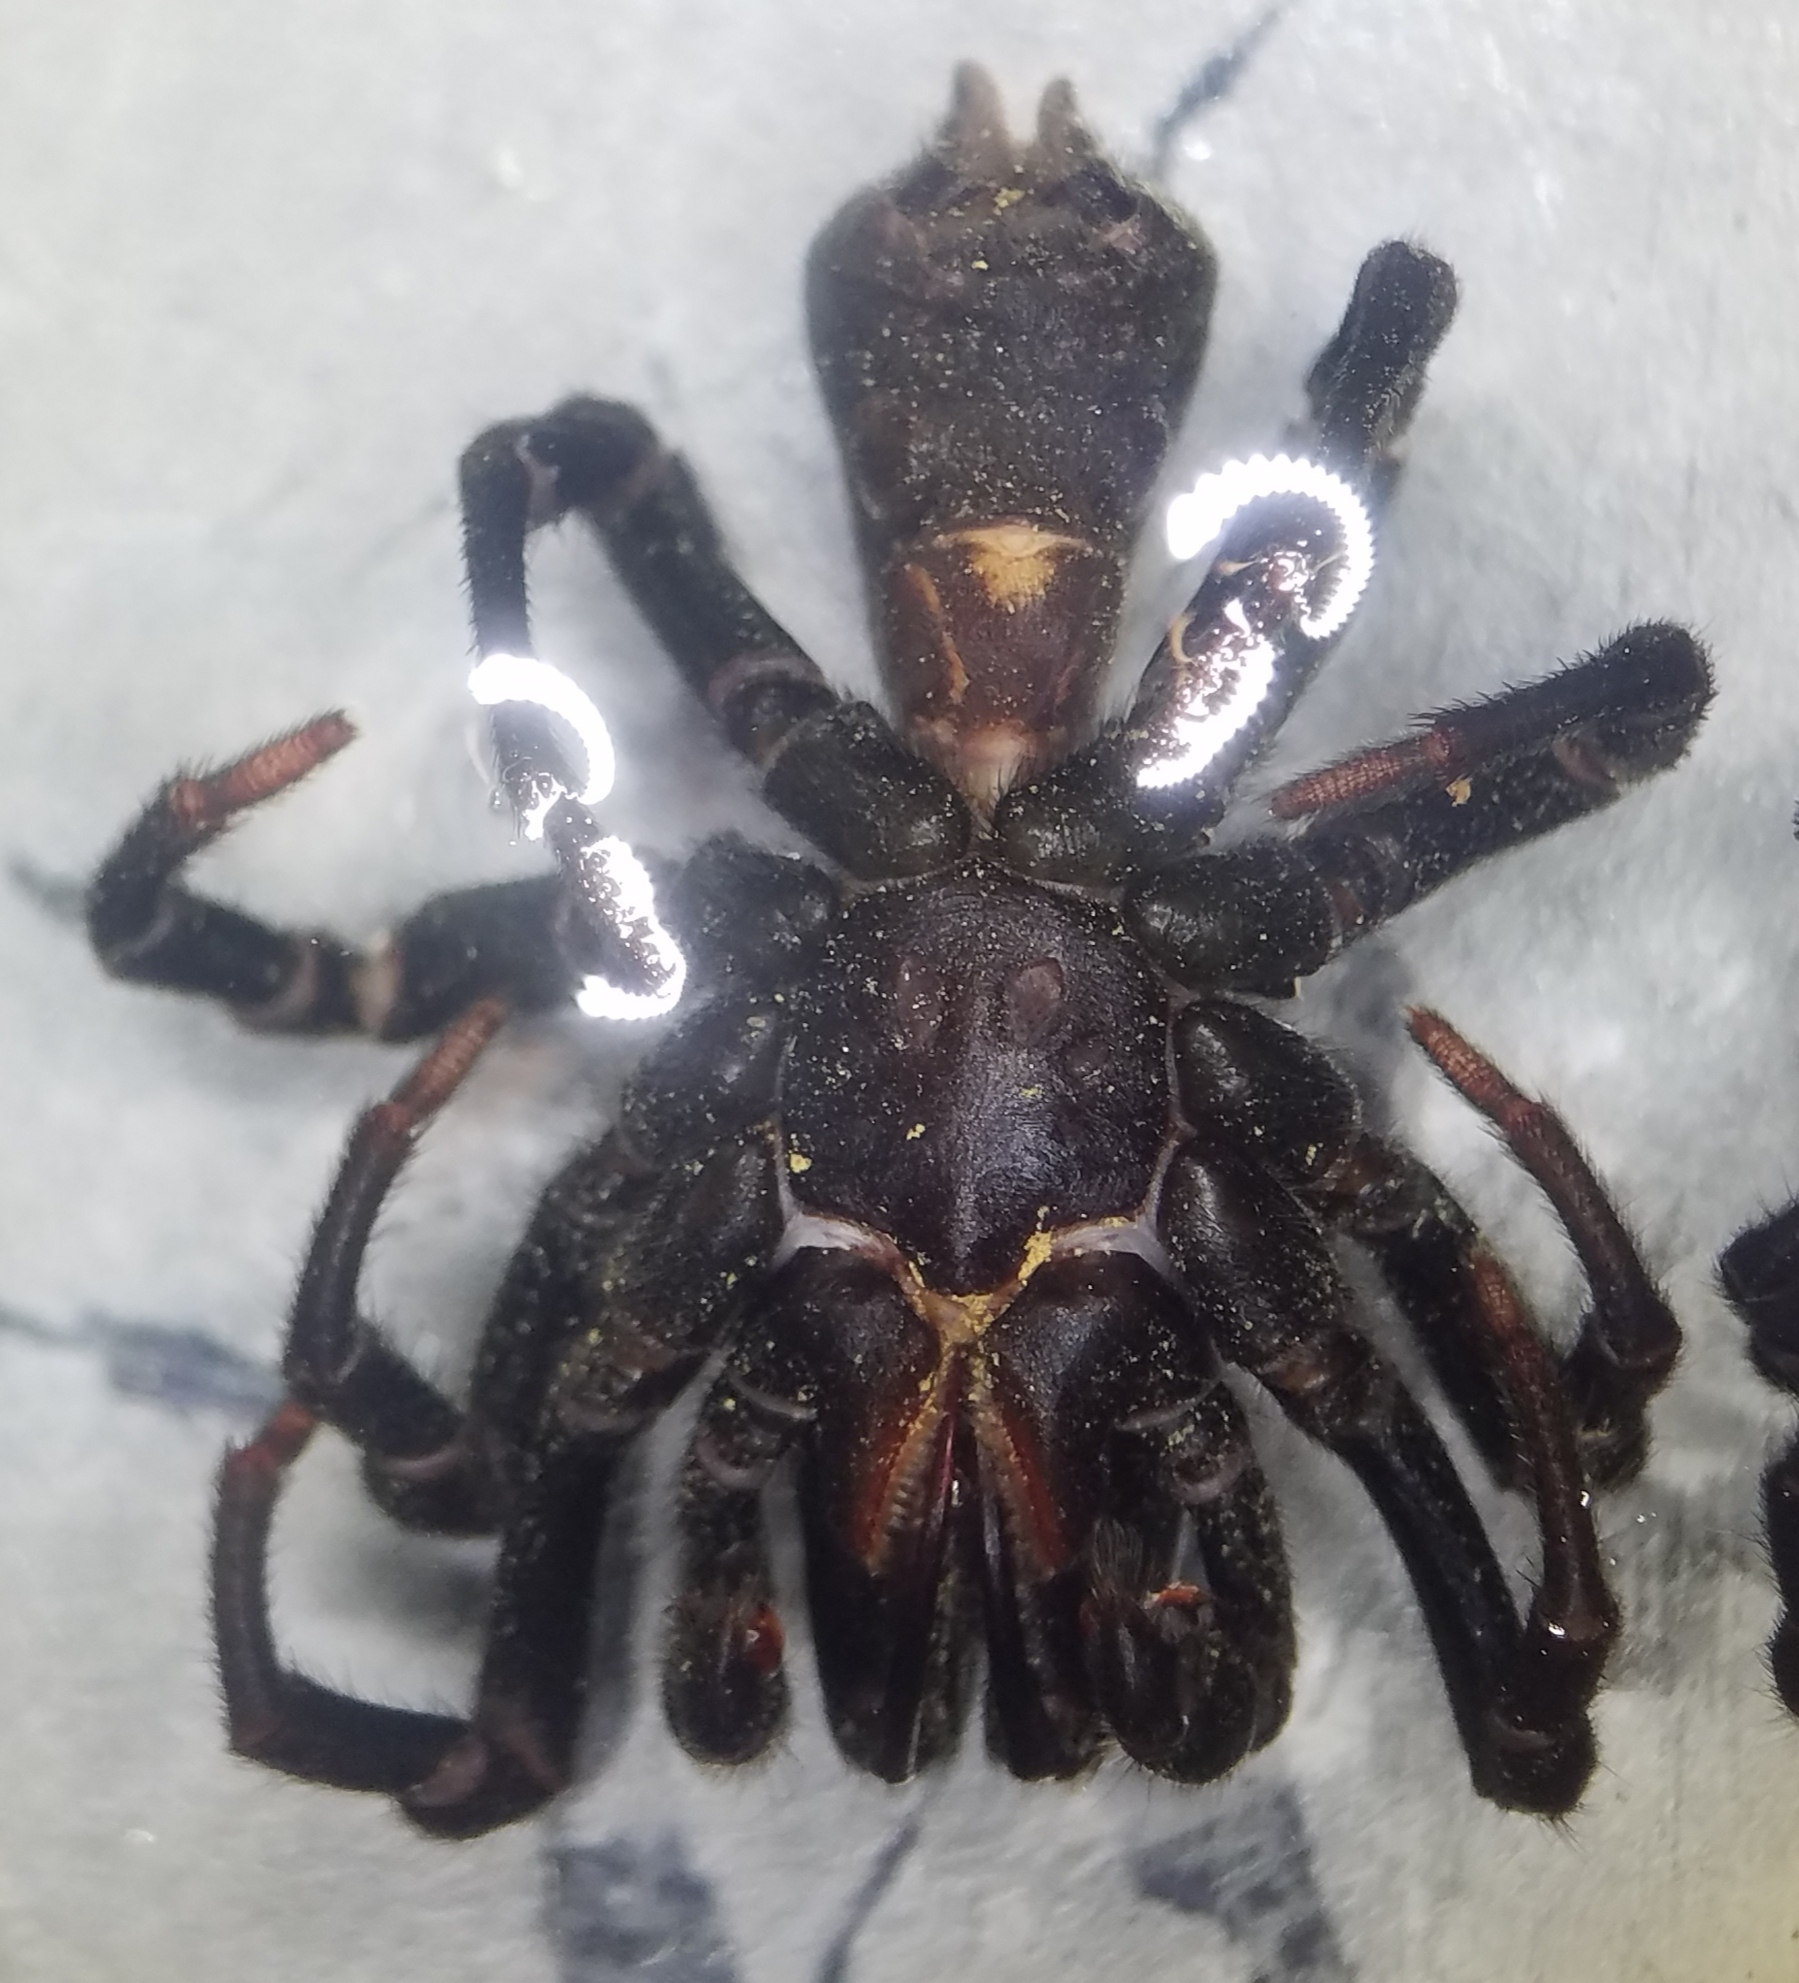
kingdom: Animalia
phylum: Arthropoda
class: Arachnida
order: Araneae
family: Atypidae
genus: Sphodros
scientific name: Sphodros niger
